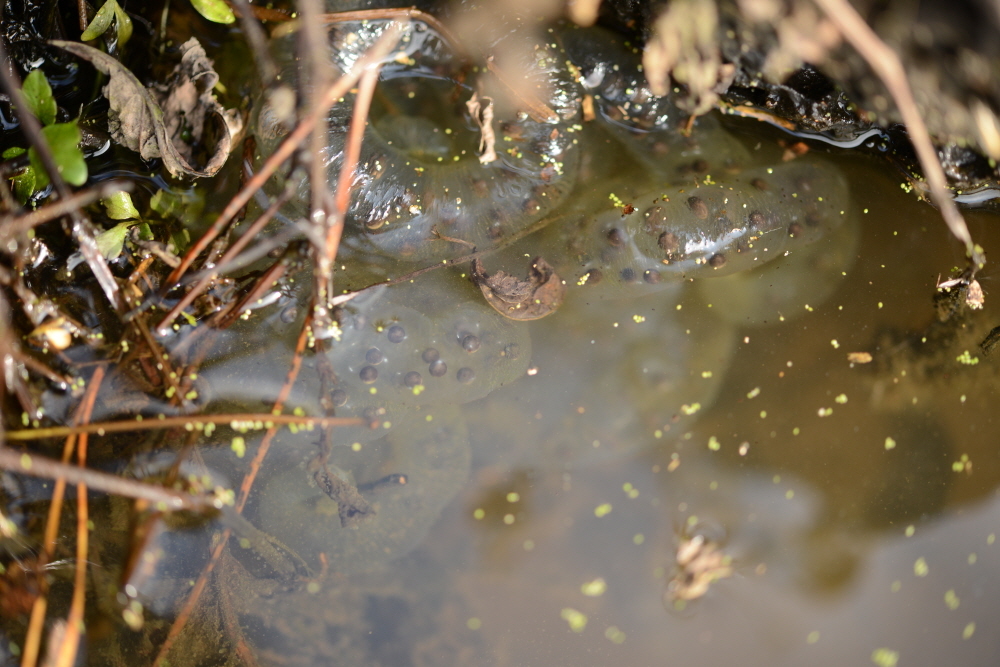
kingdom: Animalia
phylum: Chordata
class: Amphibia
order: Caudata
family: Hynobiidae
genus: Hynobius
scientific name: Hynobius quelpaertensis
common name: Cheju salamander
